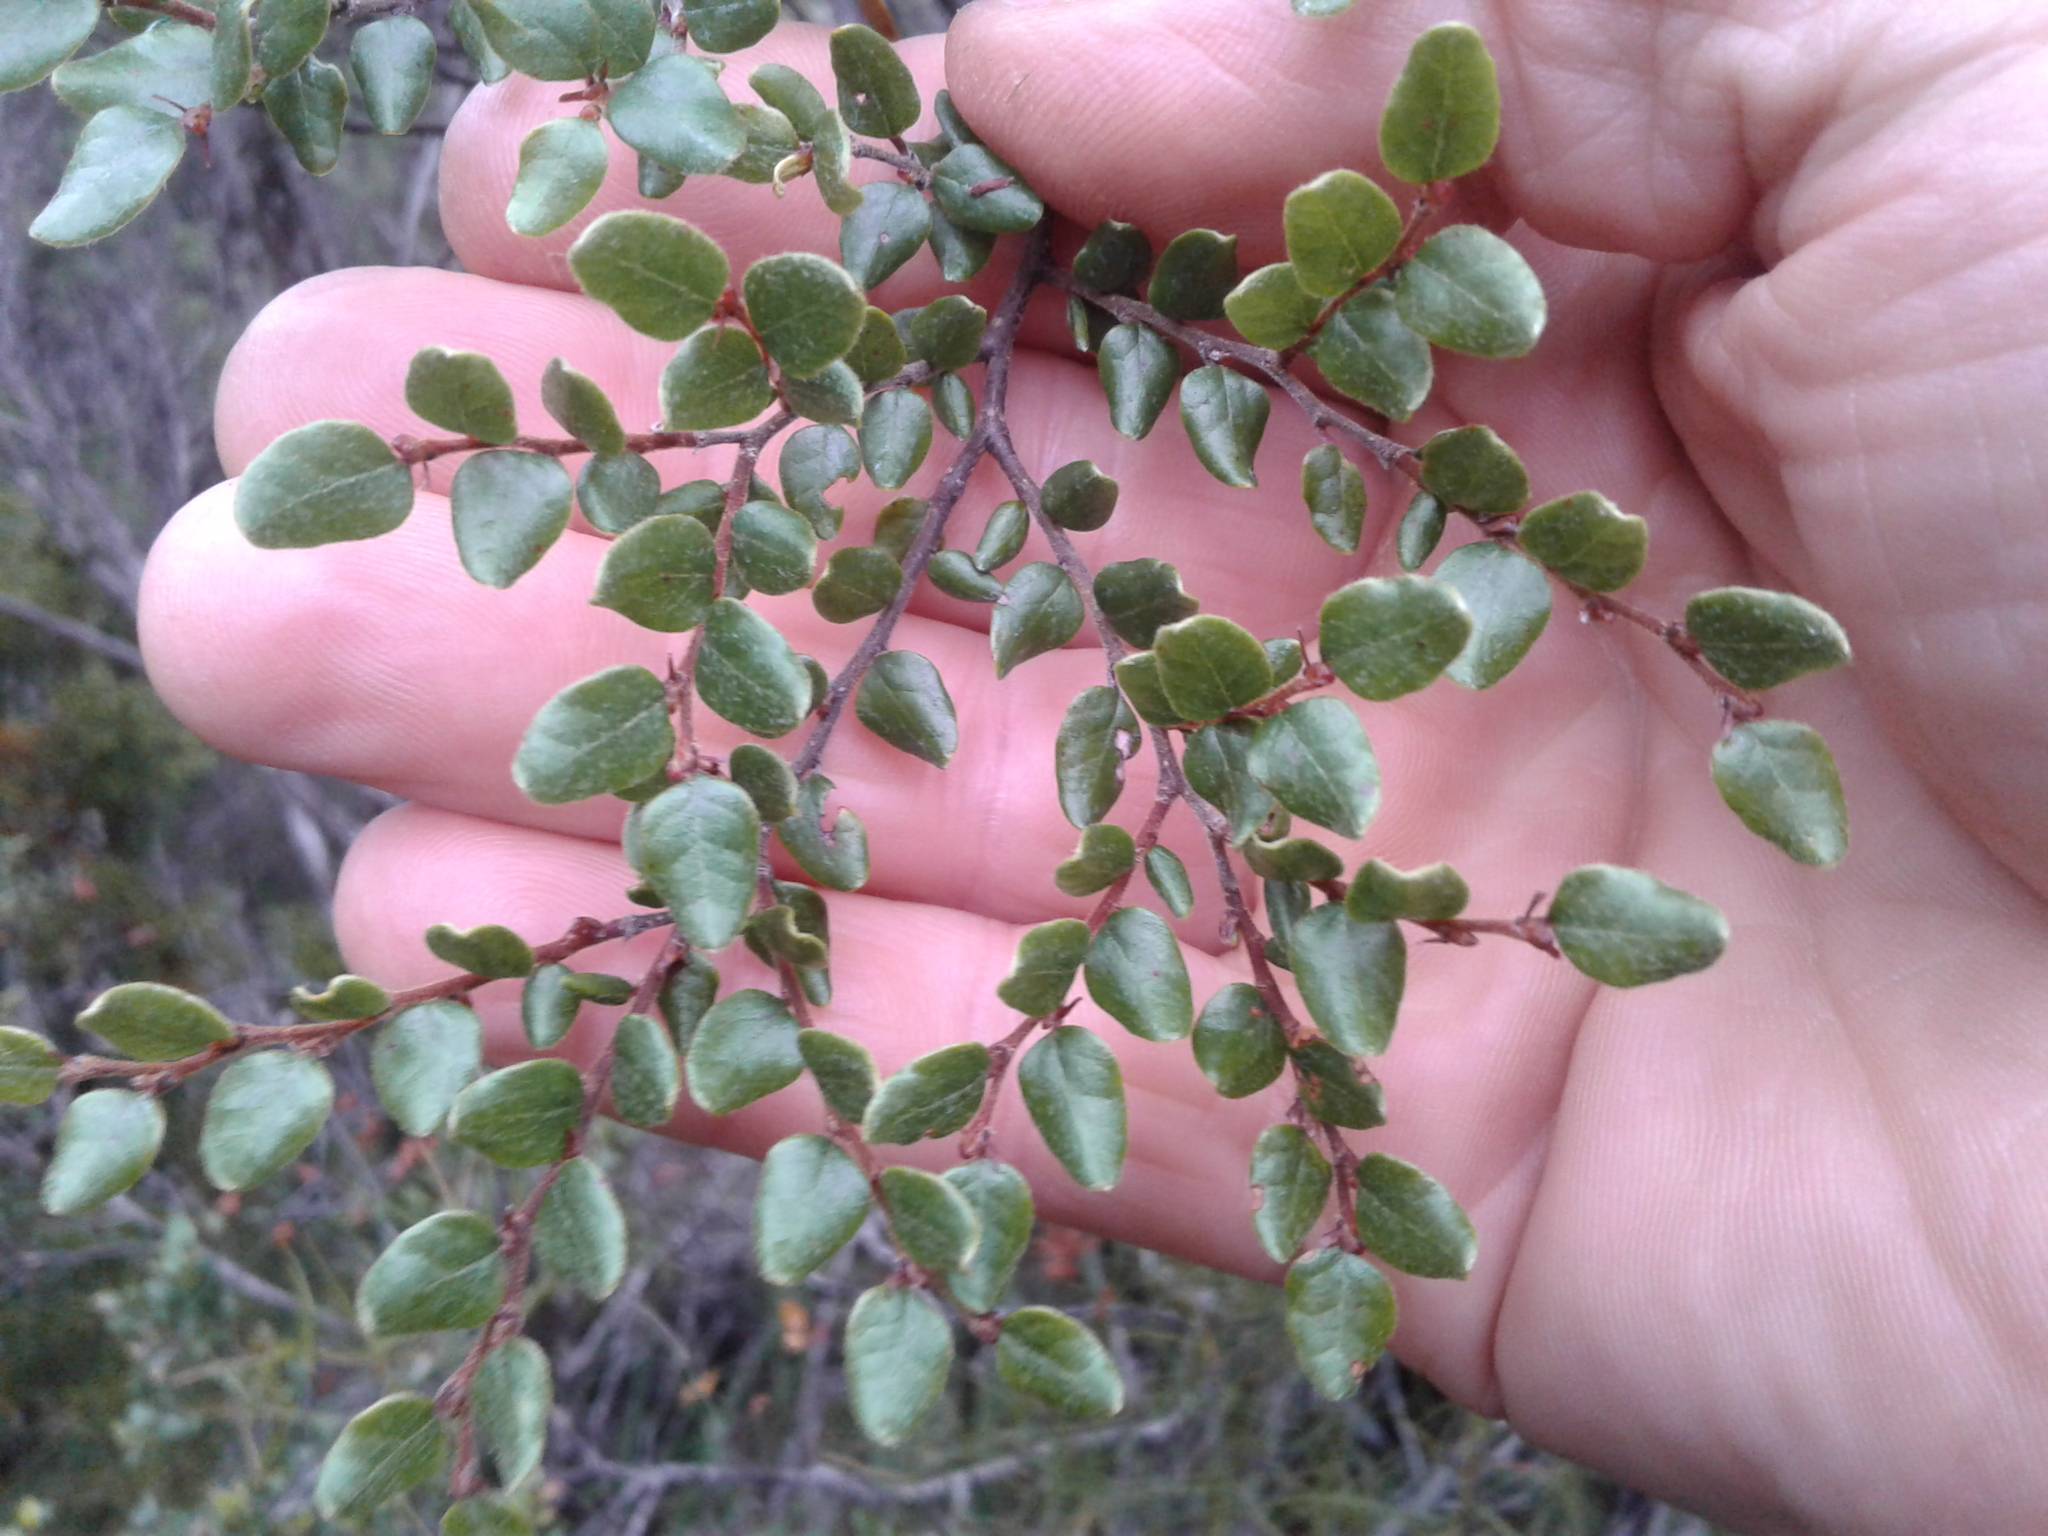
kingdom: Plantae
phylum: Tracheophyta
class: Magnoliopsida
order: Fagales
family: Nothofagaceae
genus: Nothofagus
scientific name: Nothofagus cliffortioides
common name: Mountain beech
